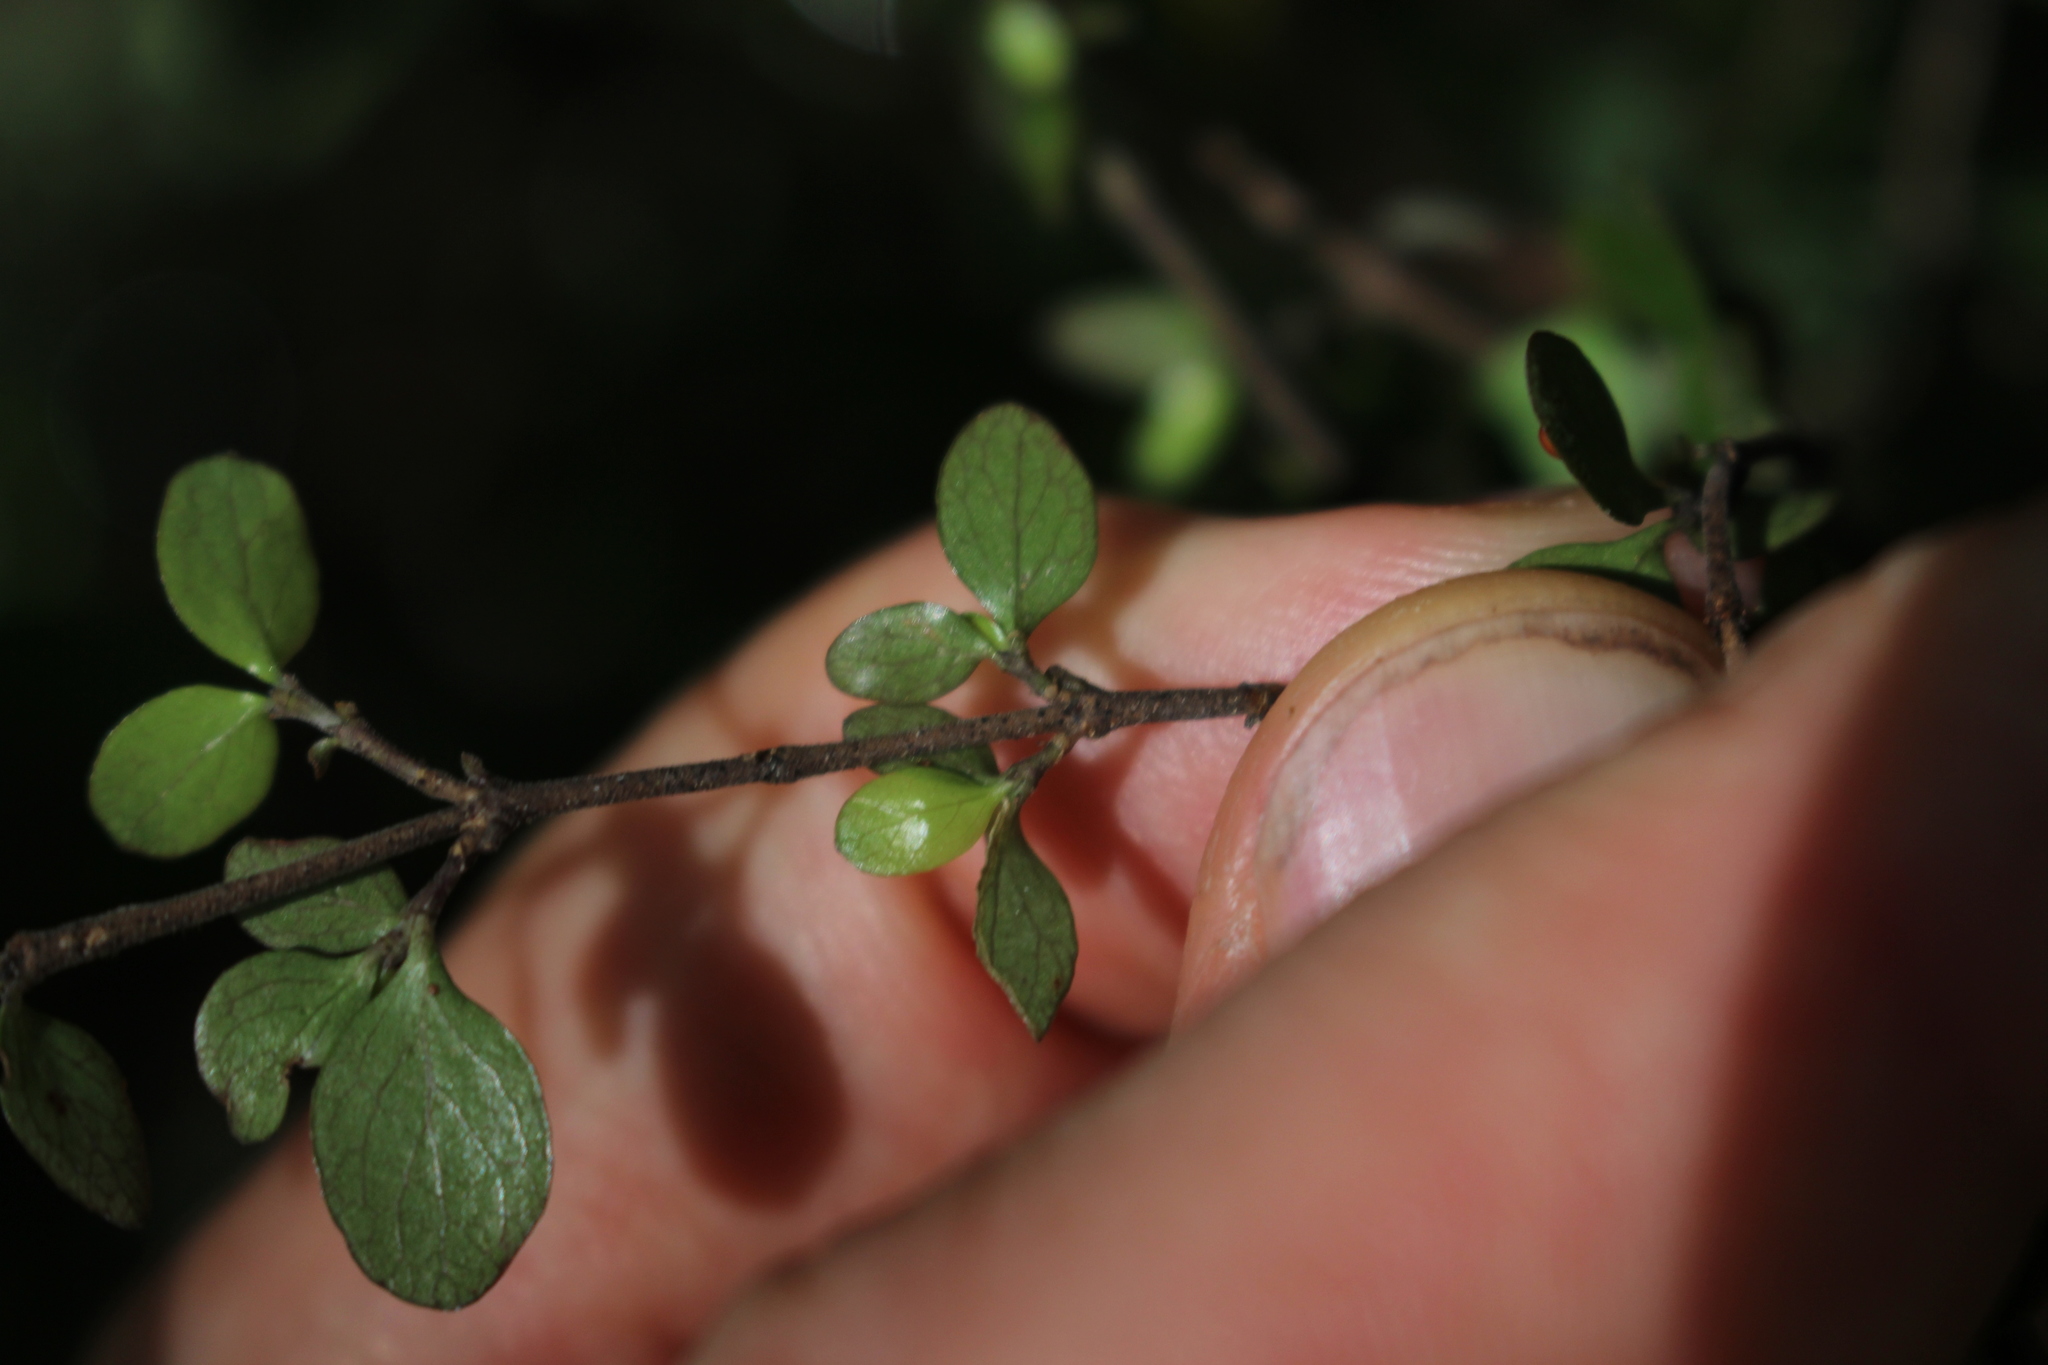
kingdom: Plantae
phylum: Tracheophyta
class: Magnoliopsida
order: Gentianales
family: Rubiaceae
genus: Coprosma
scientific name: Coprosma rhamnoides
